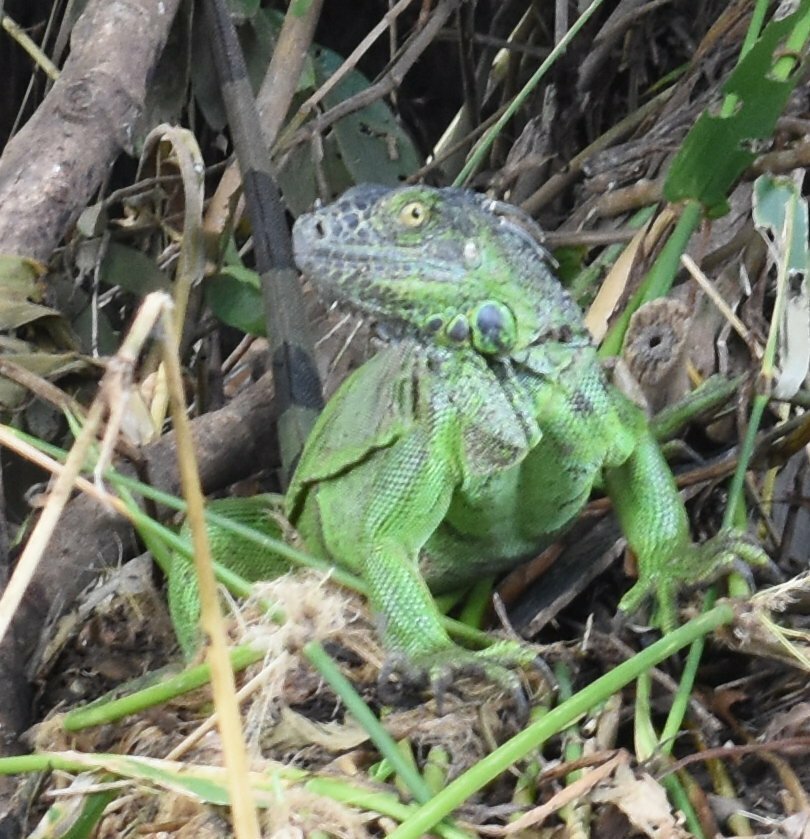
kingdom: Animalia
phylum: Chordata
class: Squamata
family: Iguanidae
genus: Iguana
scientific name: Iguana iguana
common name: Green iguana
